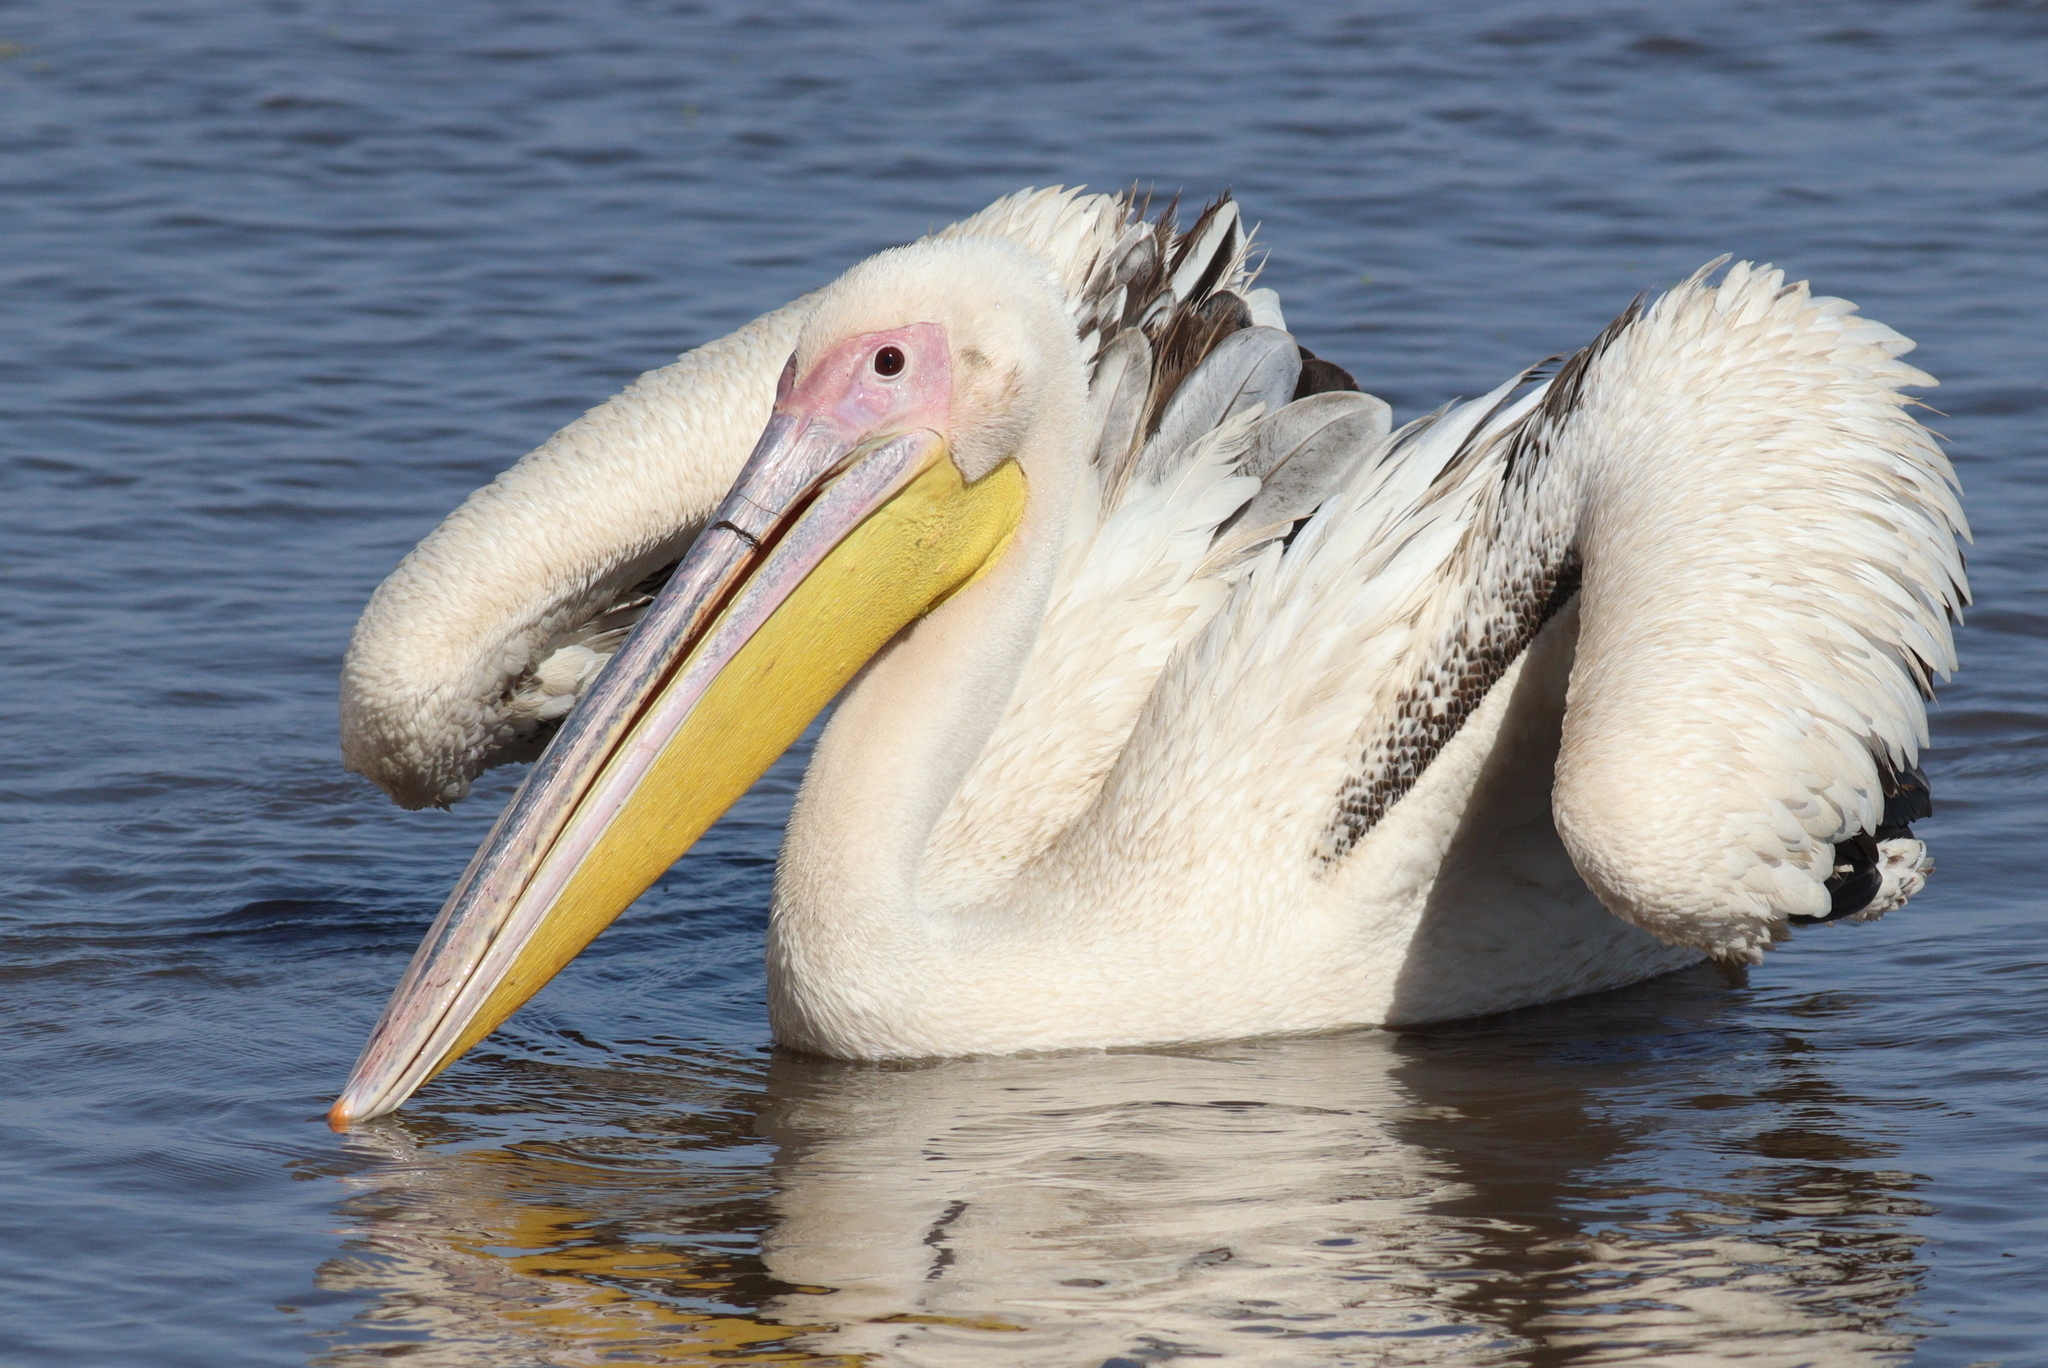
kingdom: Animalia
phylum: Chordata
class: Aves
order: Pelecaniformes
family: Pelecanidae
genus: Pelecanus
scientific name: Pelecanus onocrotalus
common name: Great white pelican
